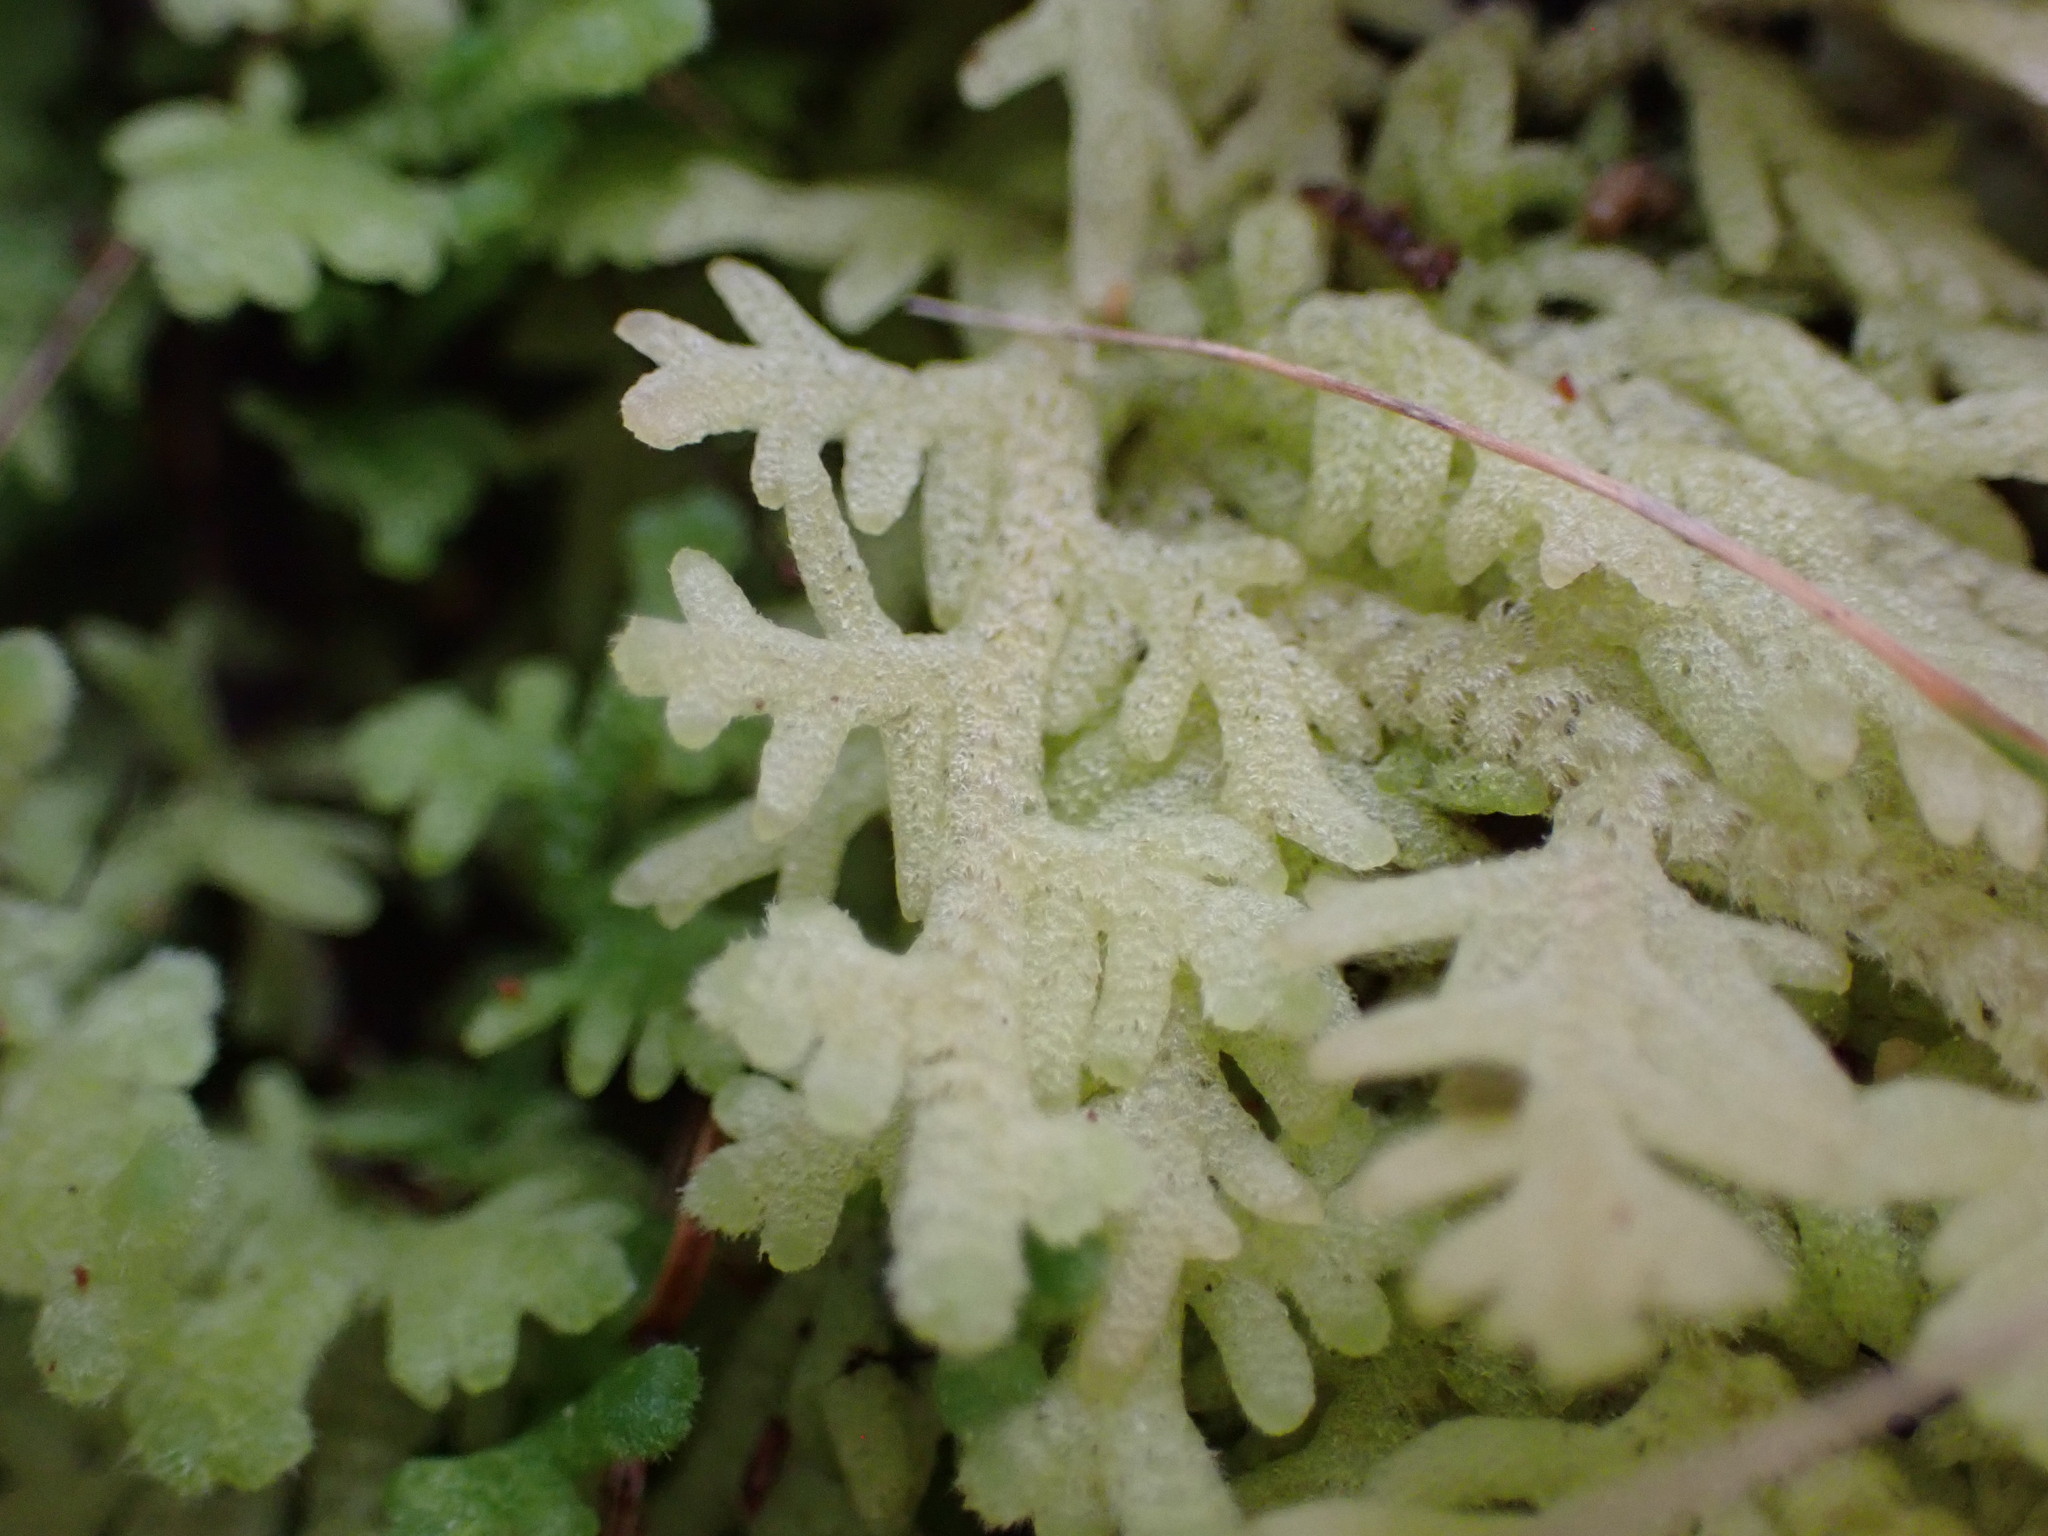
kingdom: Plantae
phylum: Marchantiophyta
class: Jungermanniopsida
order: Jungermanniales
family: Trichocoleaceae
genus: Trichocolea
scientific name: Trichocolea mollissima
